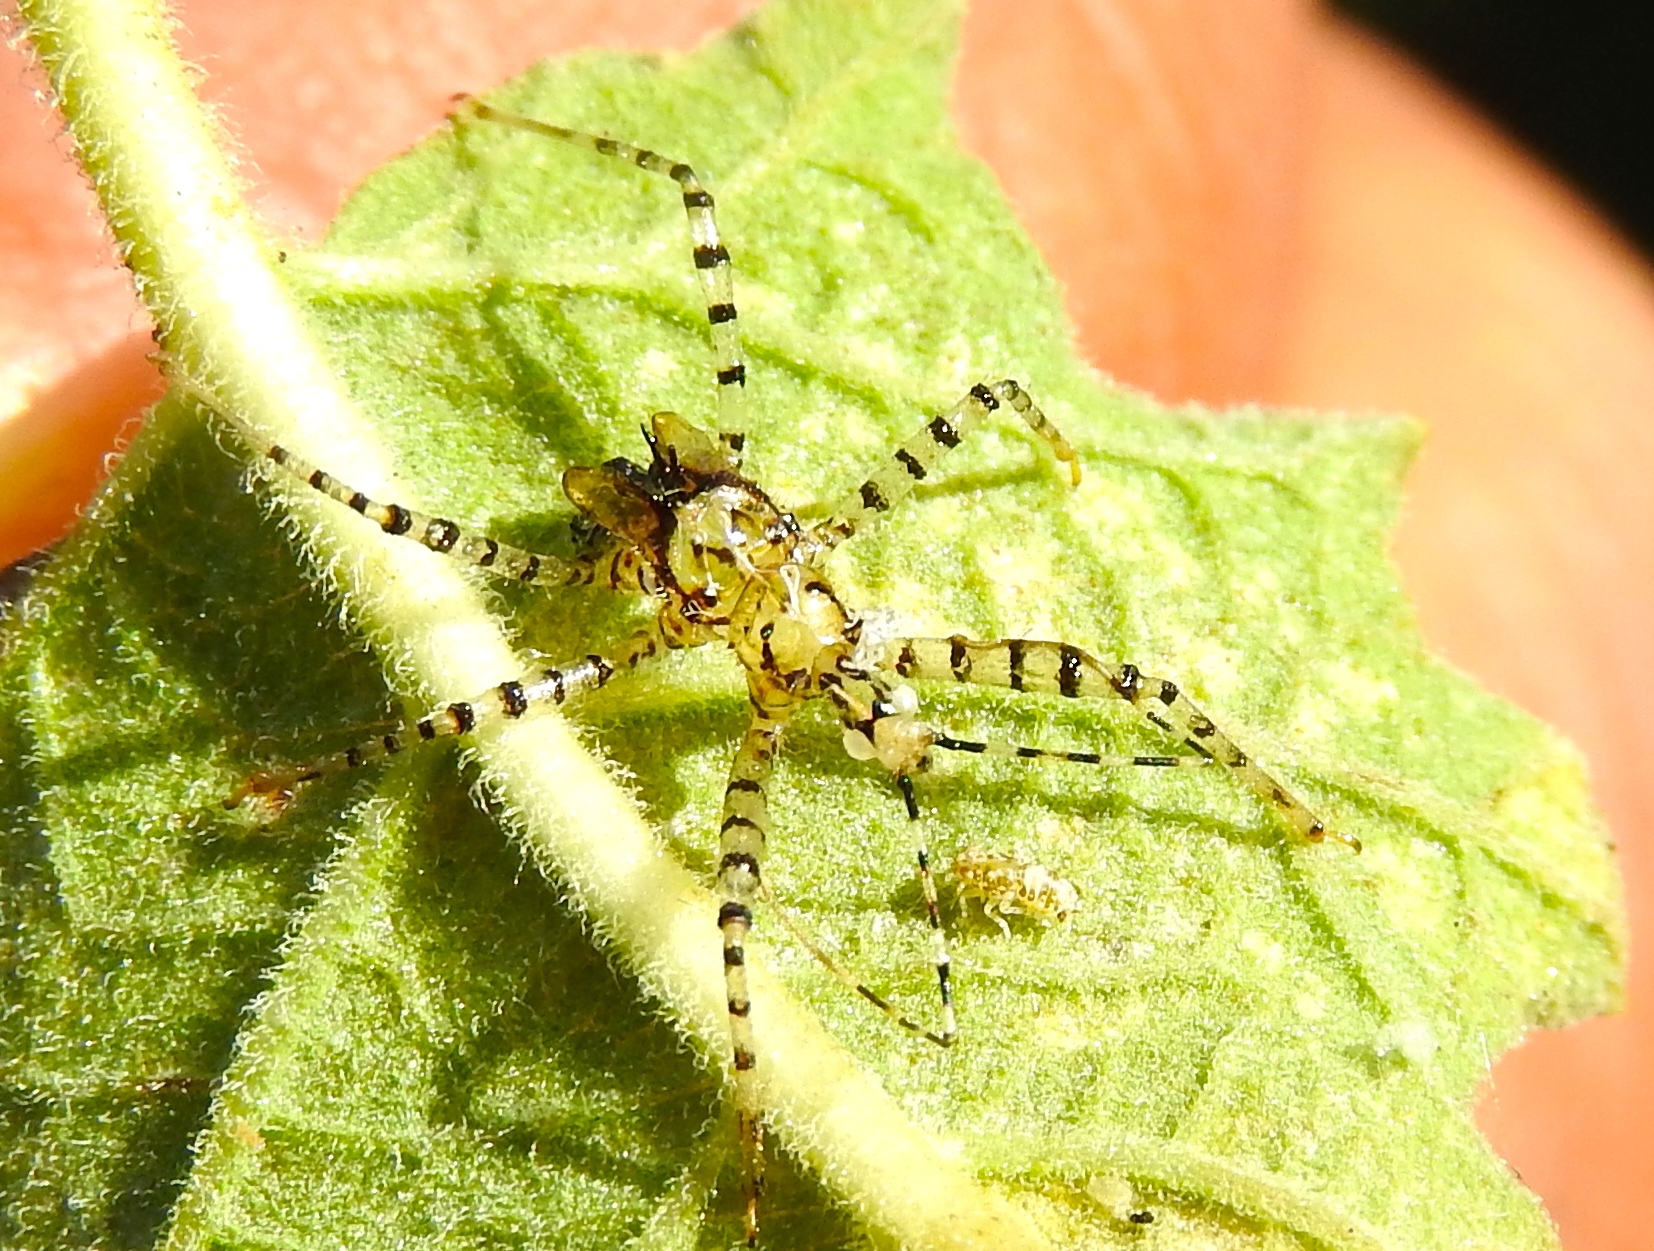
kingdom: Animalia
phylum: Arthropoda
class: Insecta
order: Hemiptera
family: Reduviidae
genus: Pselliopus
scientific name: Pselliopus
